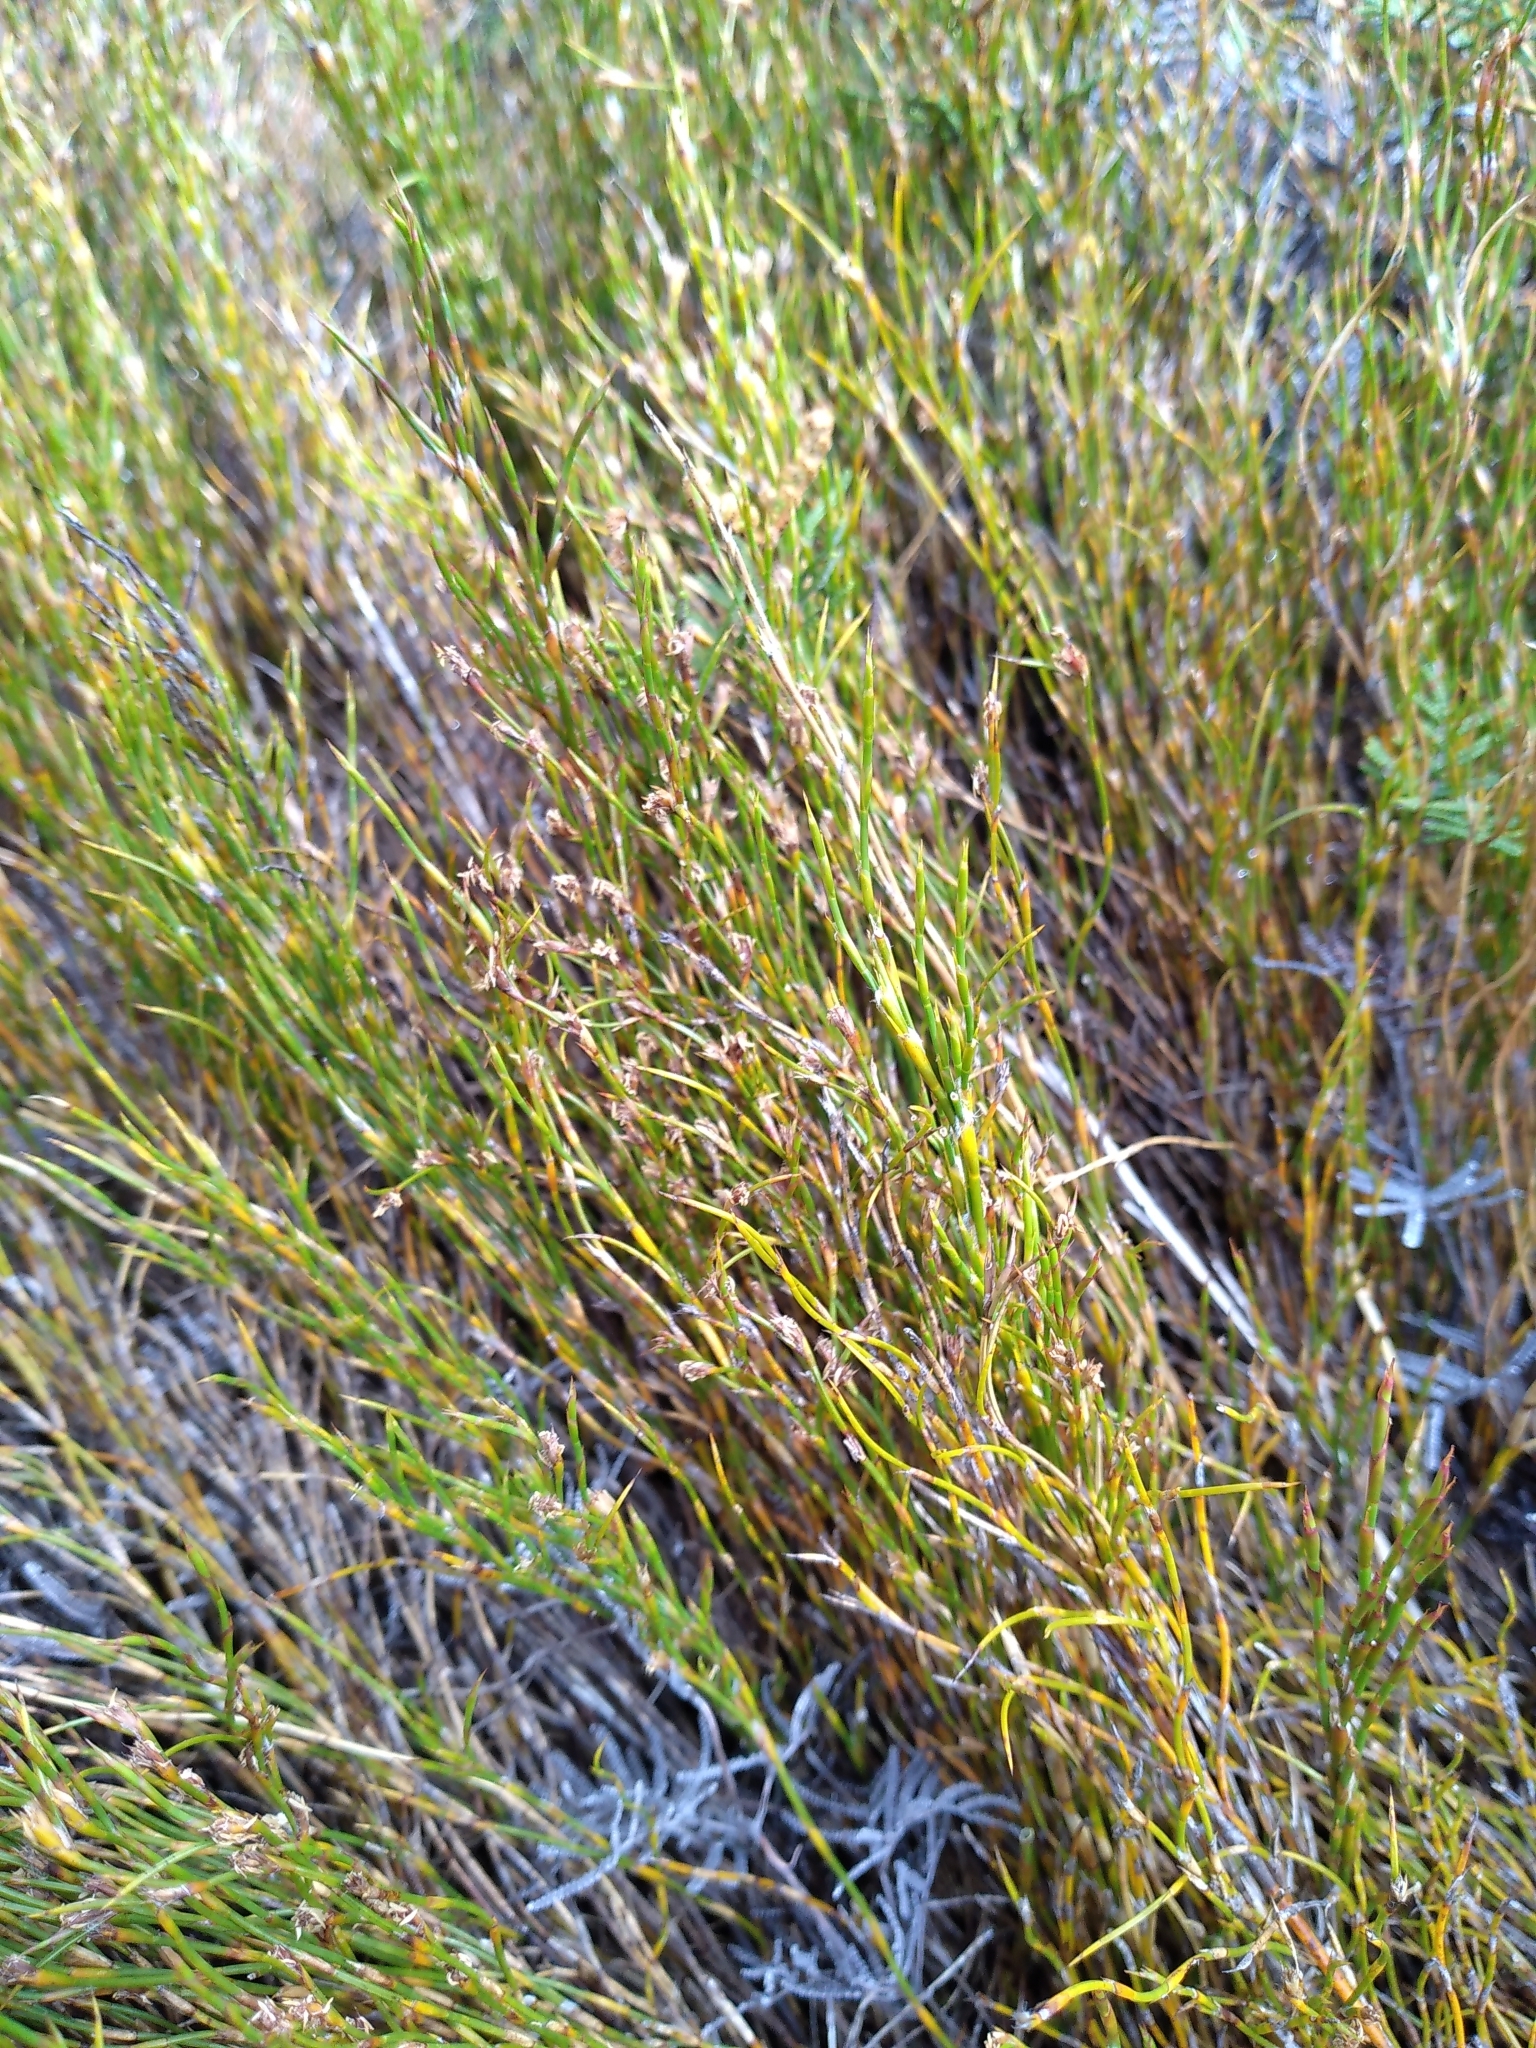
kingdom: Plantae
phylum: Tracheophyta
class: Liliopsida
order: Poales
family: Restionaceae
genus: Empodisma
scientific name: Empodisma minus
